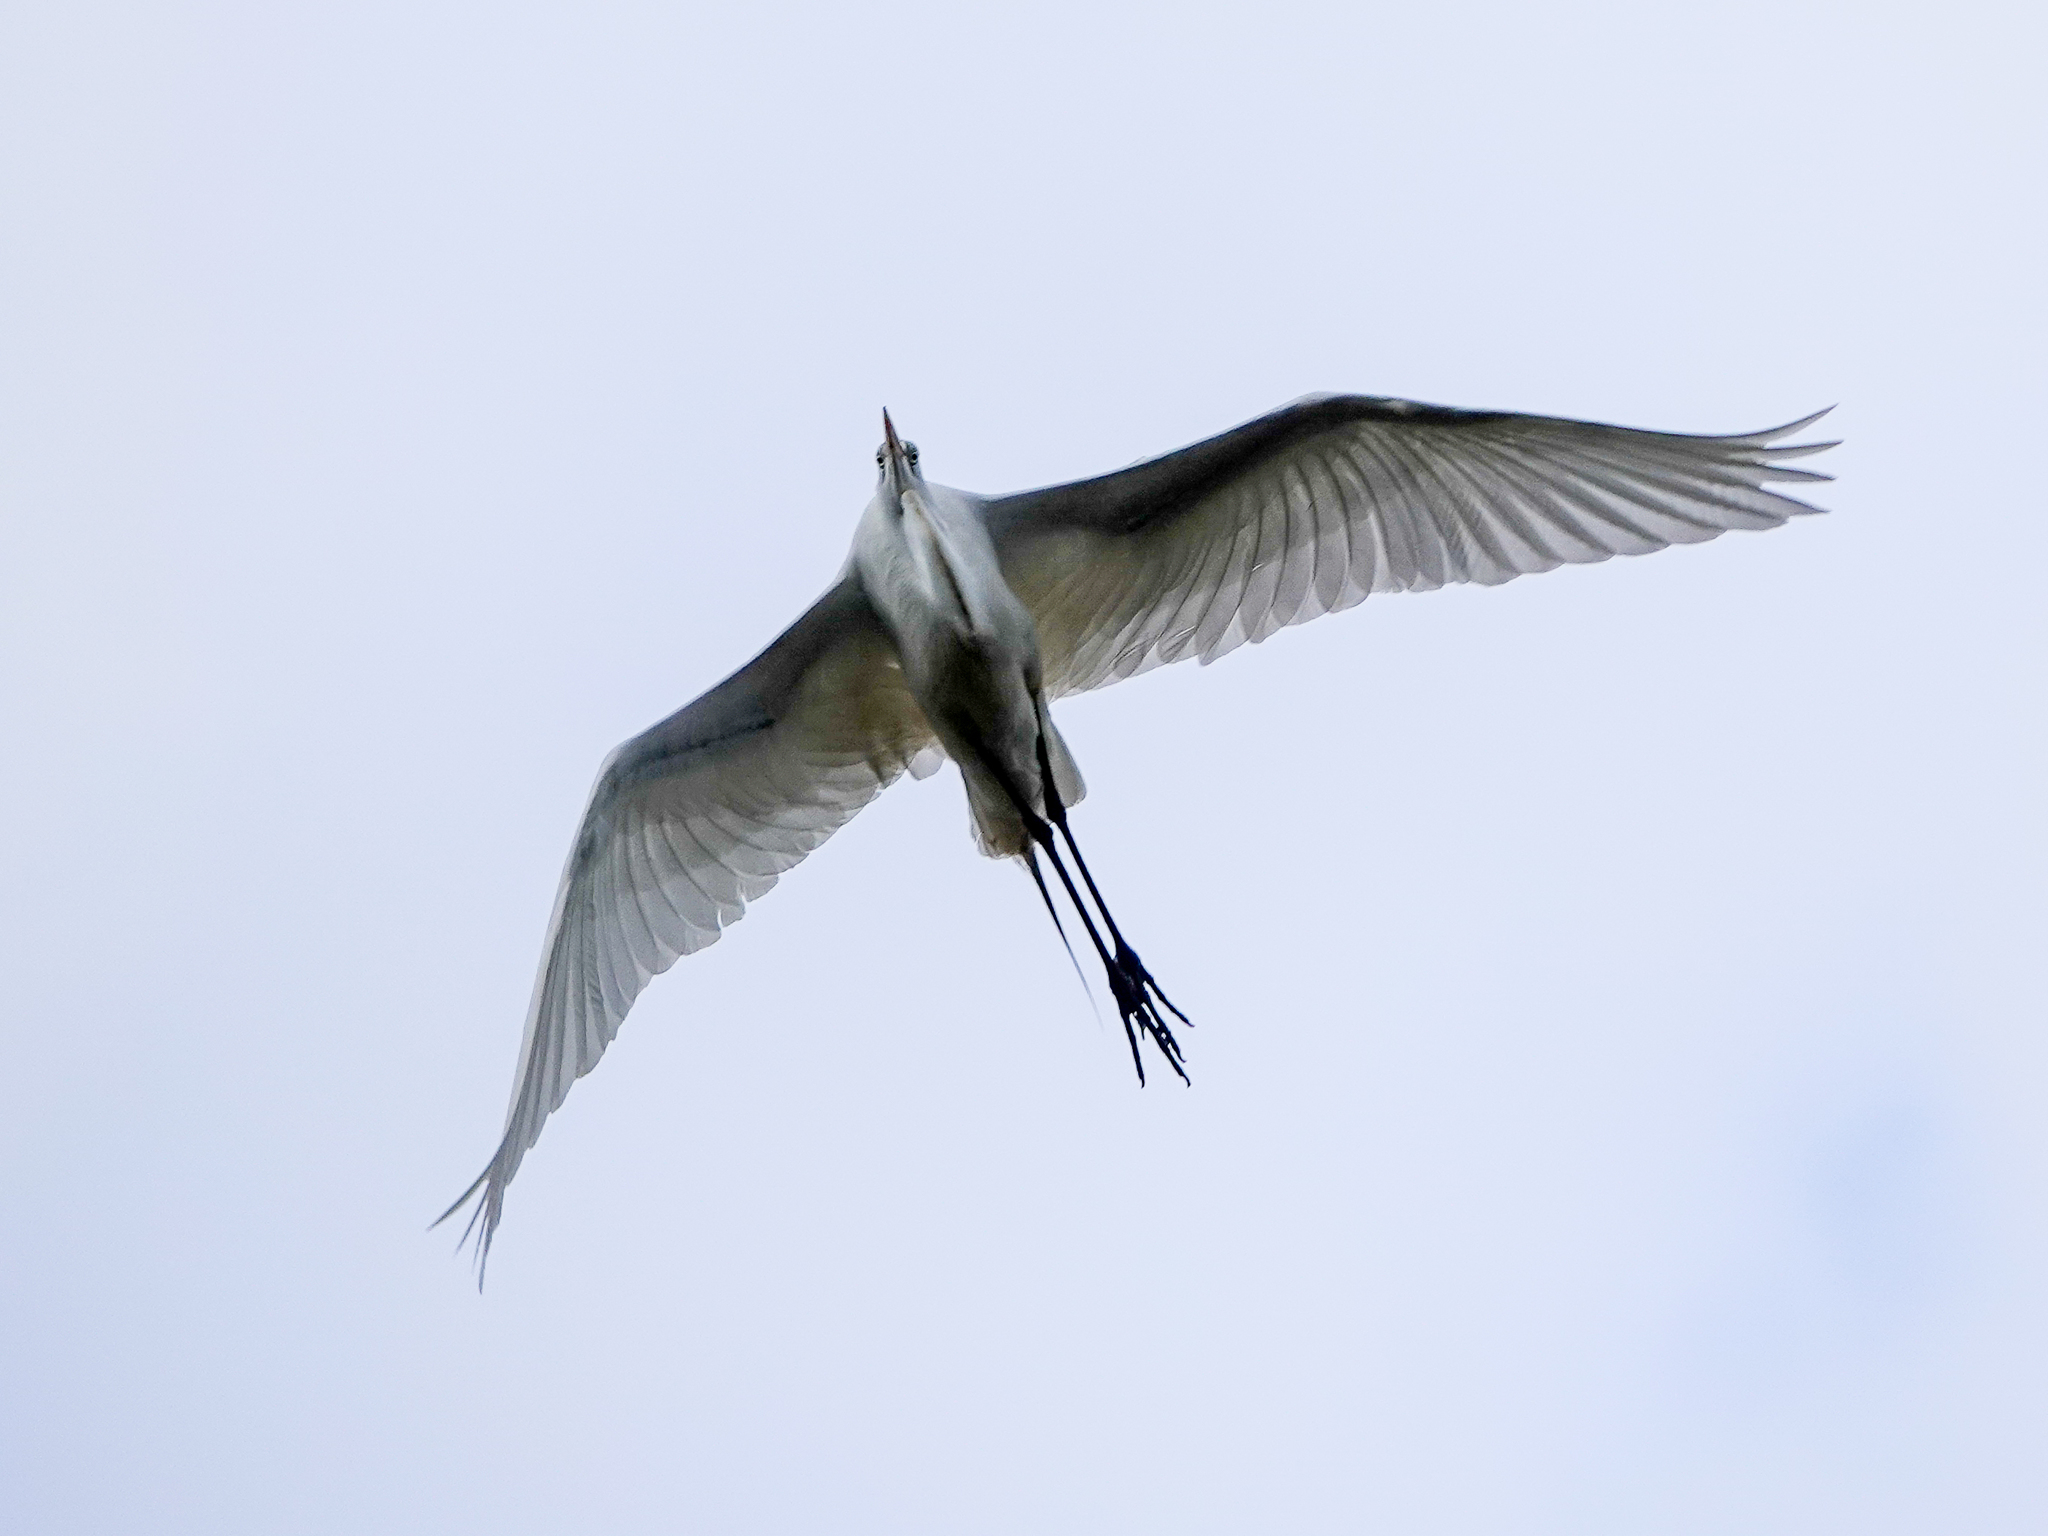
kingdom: Animalia
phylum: Chordata
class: Aves
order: Pelecaniformes
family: Ardeidae
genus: Ardea
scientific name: Ardea alba
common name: Great egret
